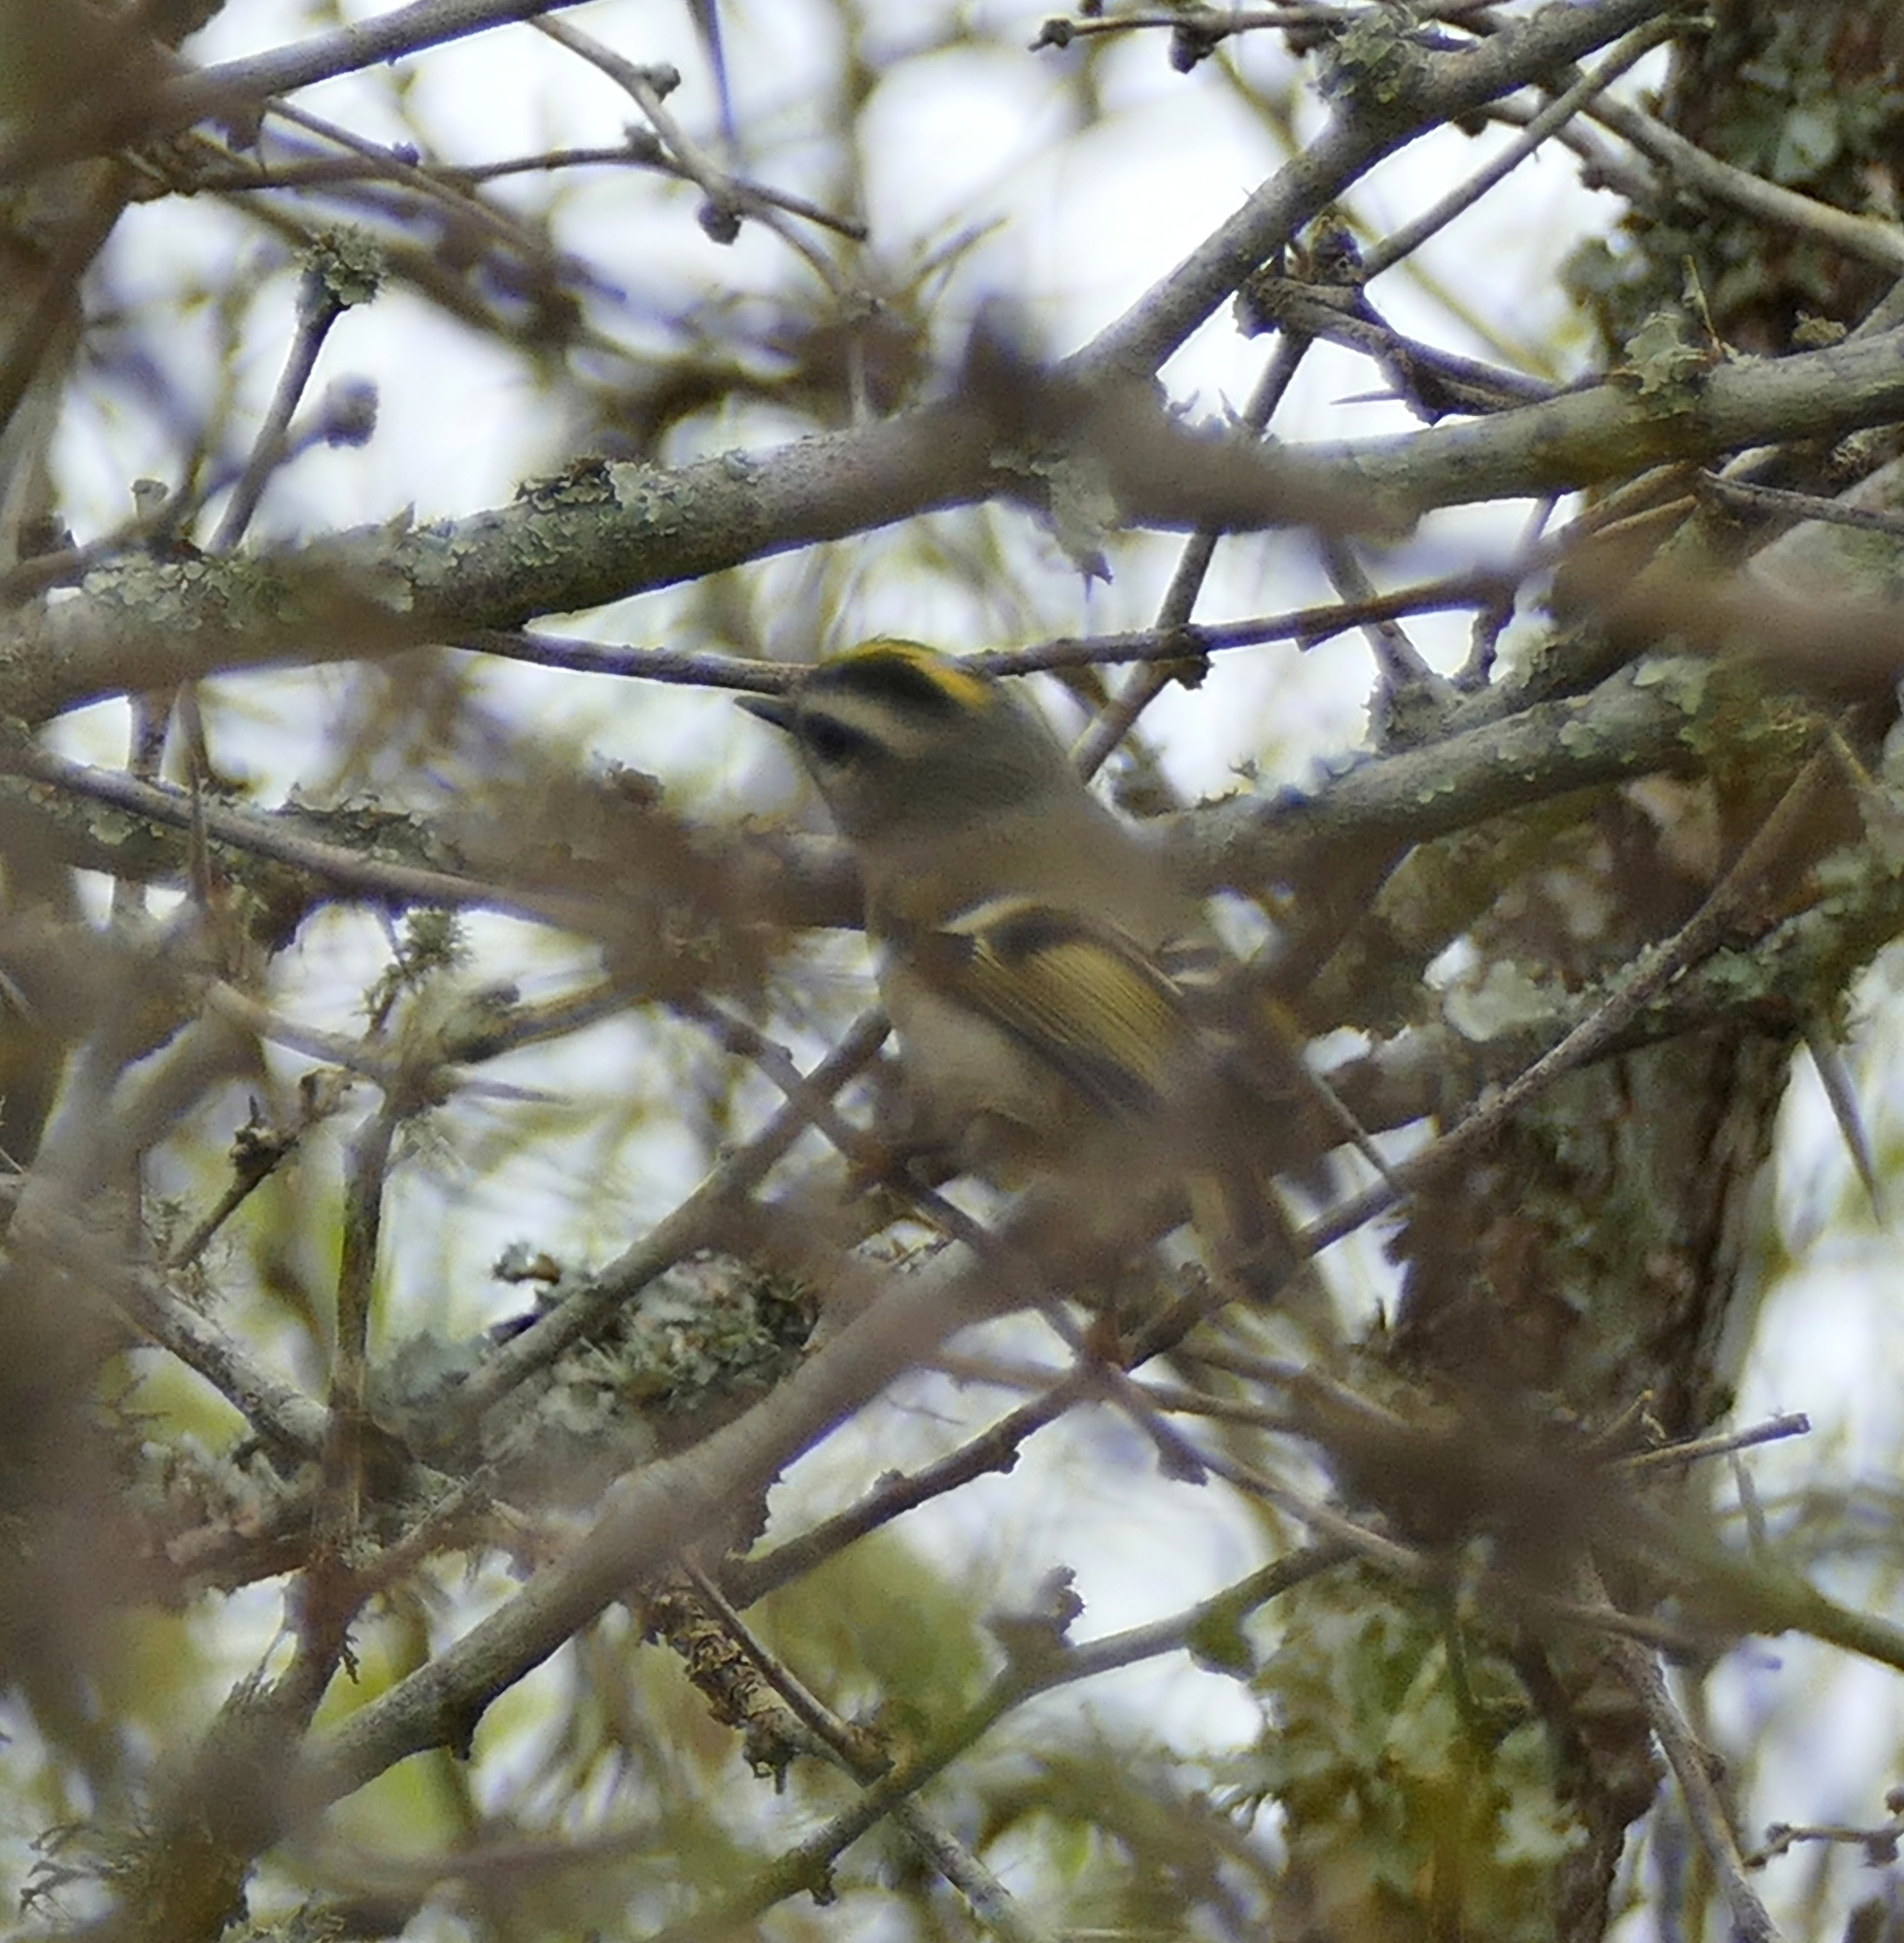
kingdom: Animalia
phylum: Chordata
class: Aves
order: Passeriformes
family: Regulidae
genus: Regulus
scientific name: Regulus satrapa
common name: Golden-crowned kinglet
